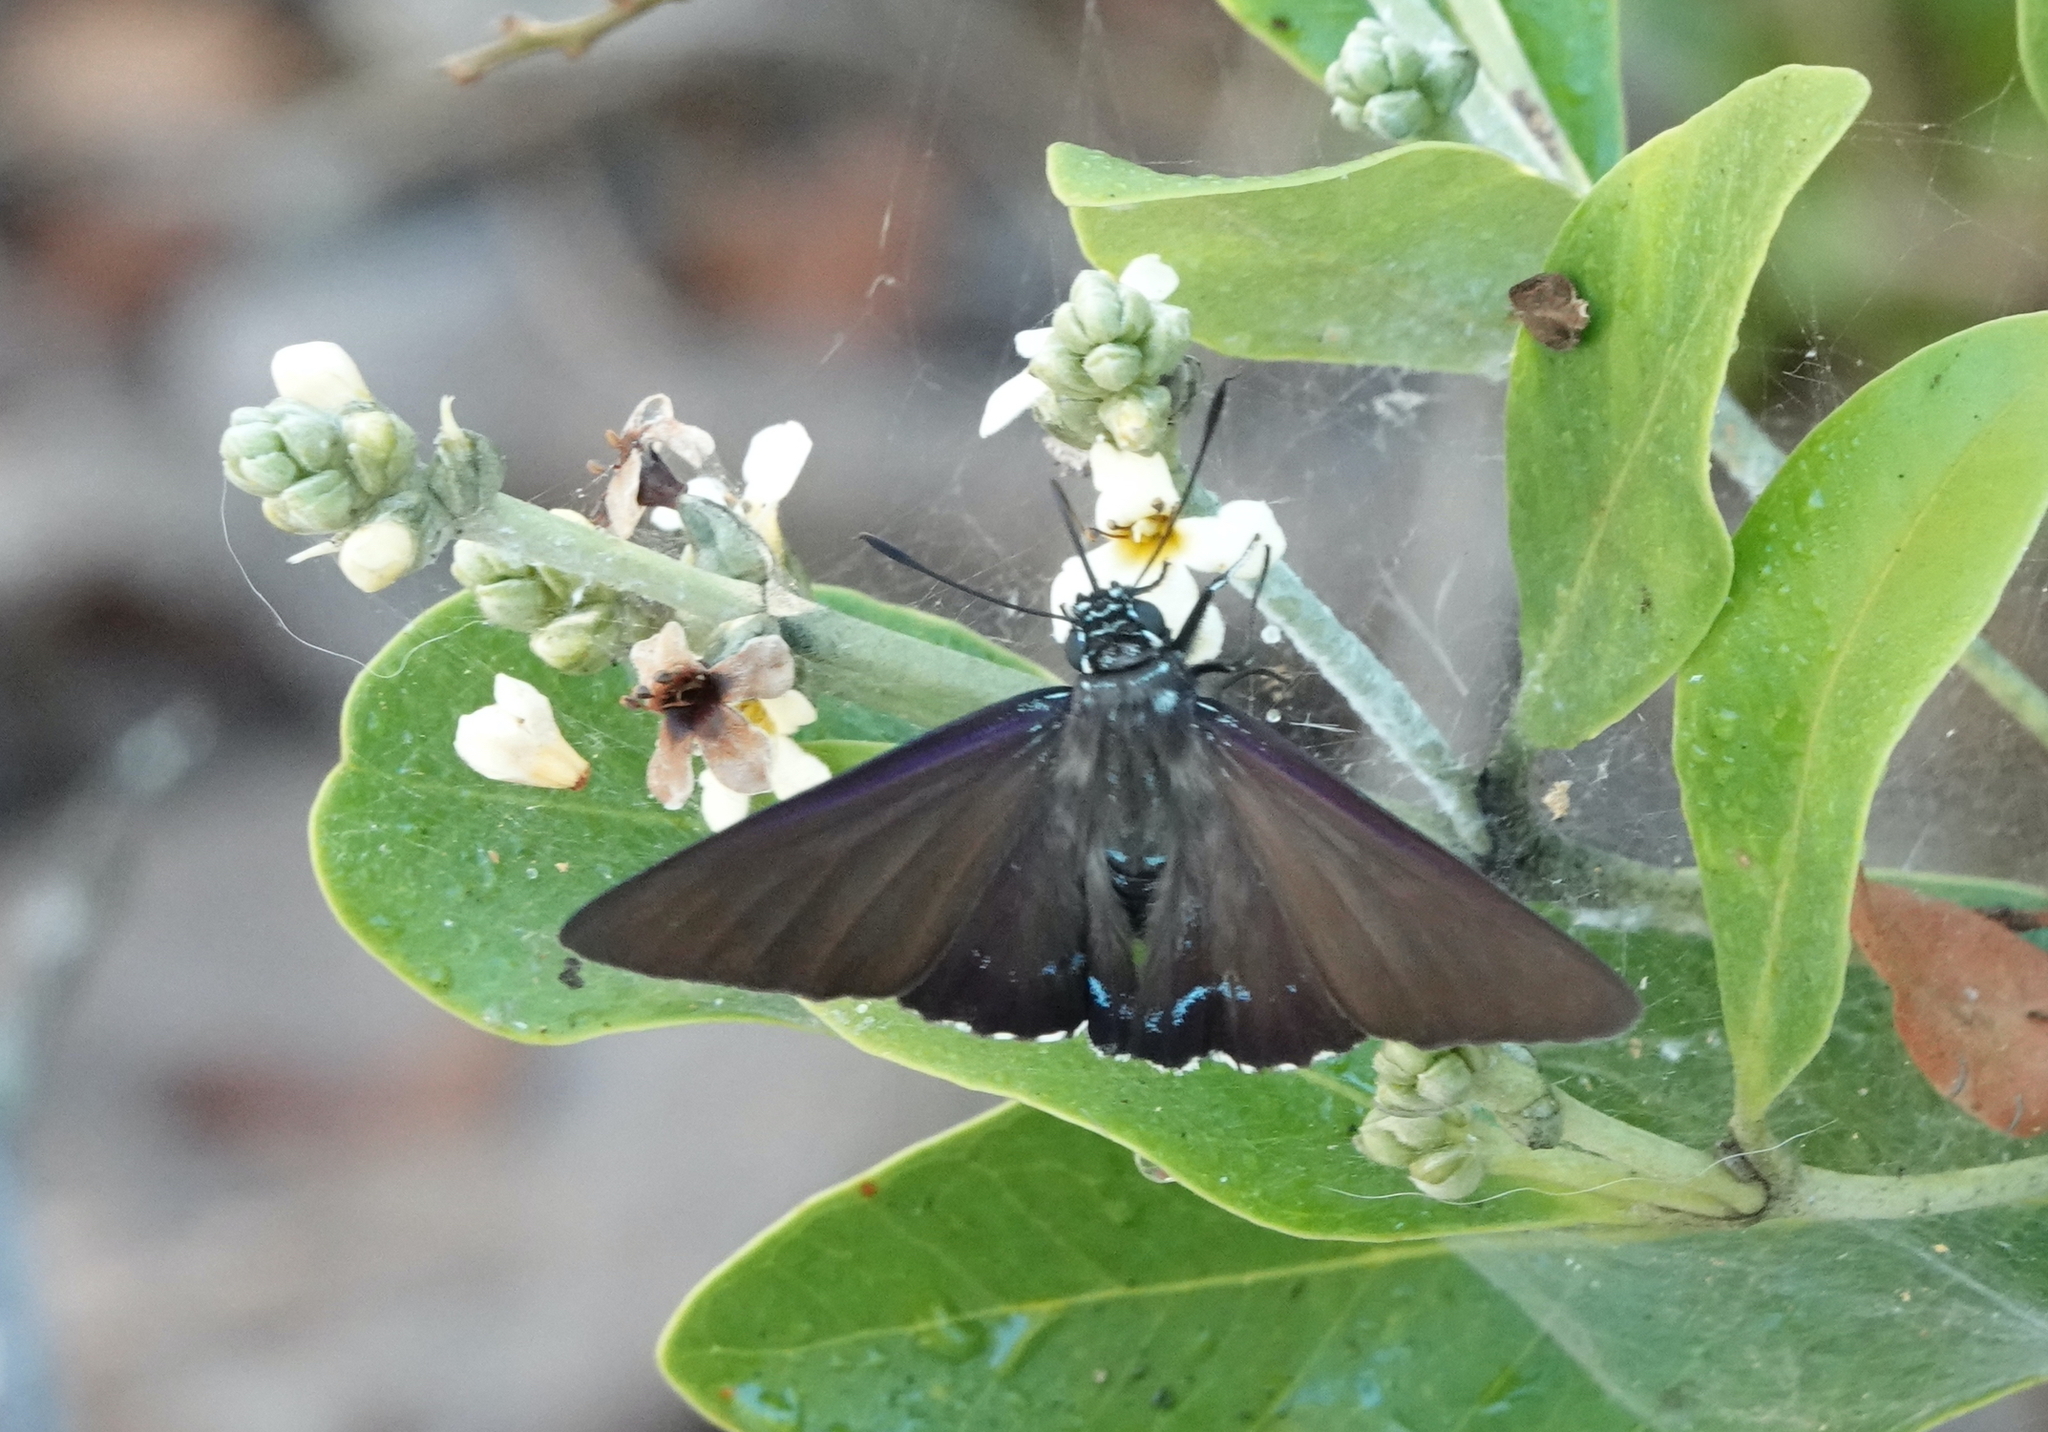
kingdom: Animalia
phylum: Arthropoda
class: Insecta
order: Lepidoptera
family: Hesperiidae
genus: Phocides
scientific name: Phocides pigmalion
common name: Mangrove skipper
